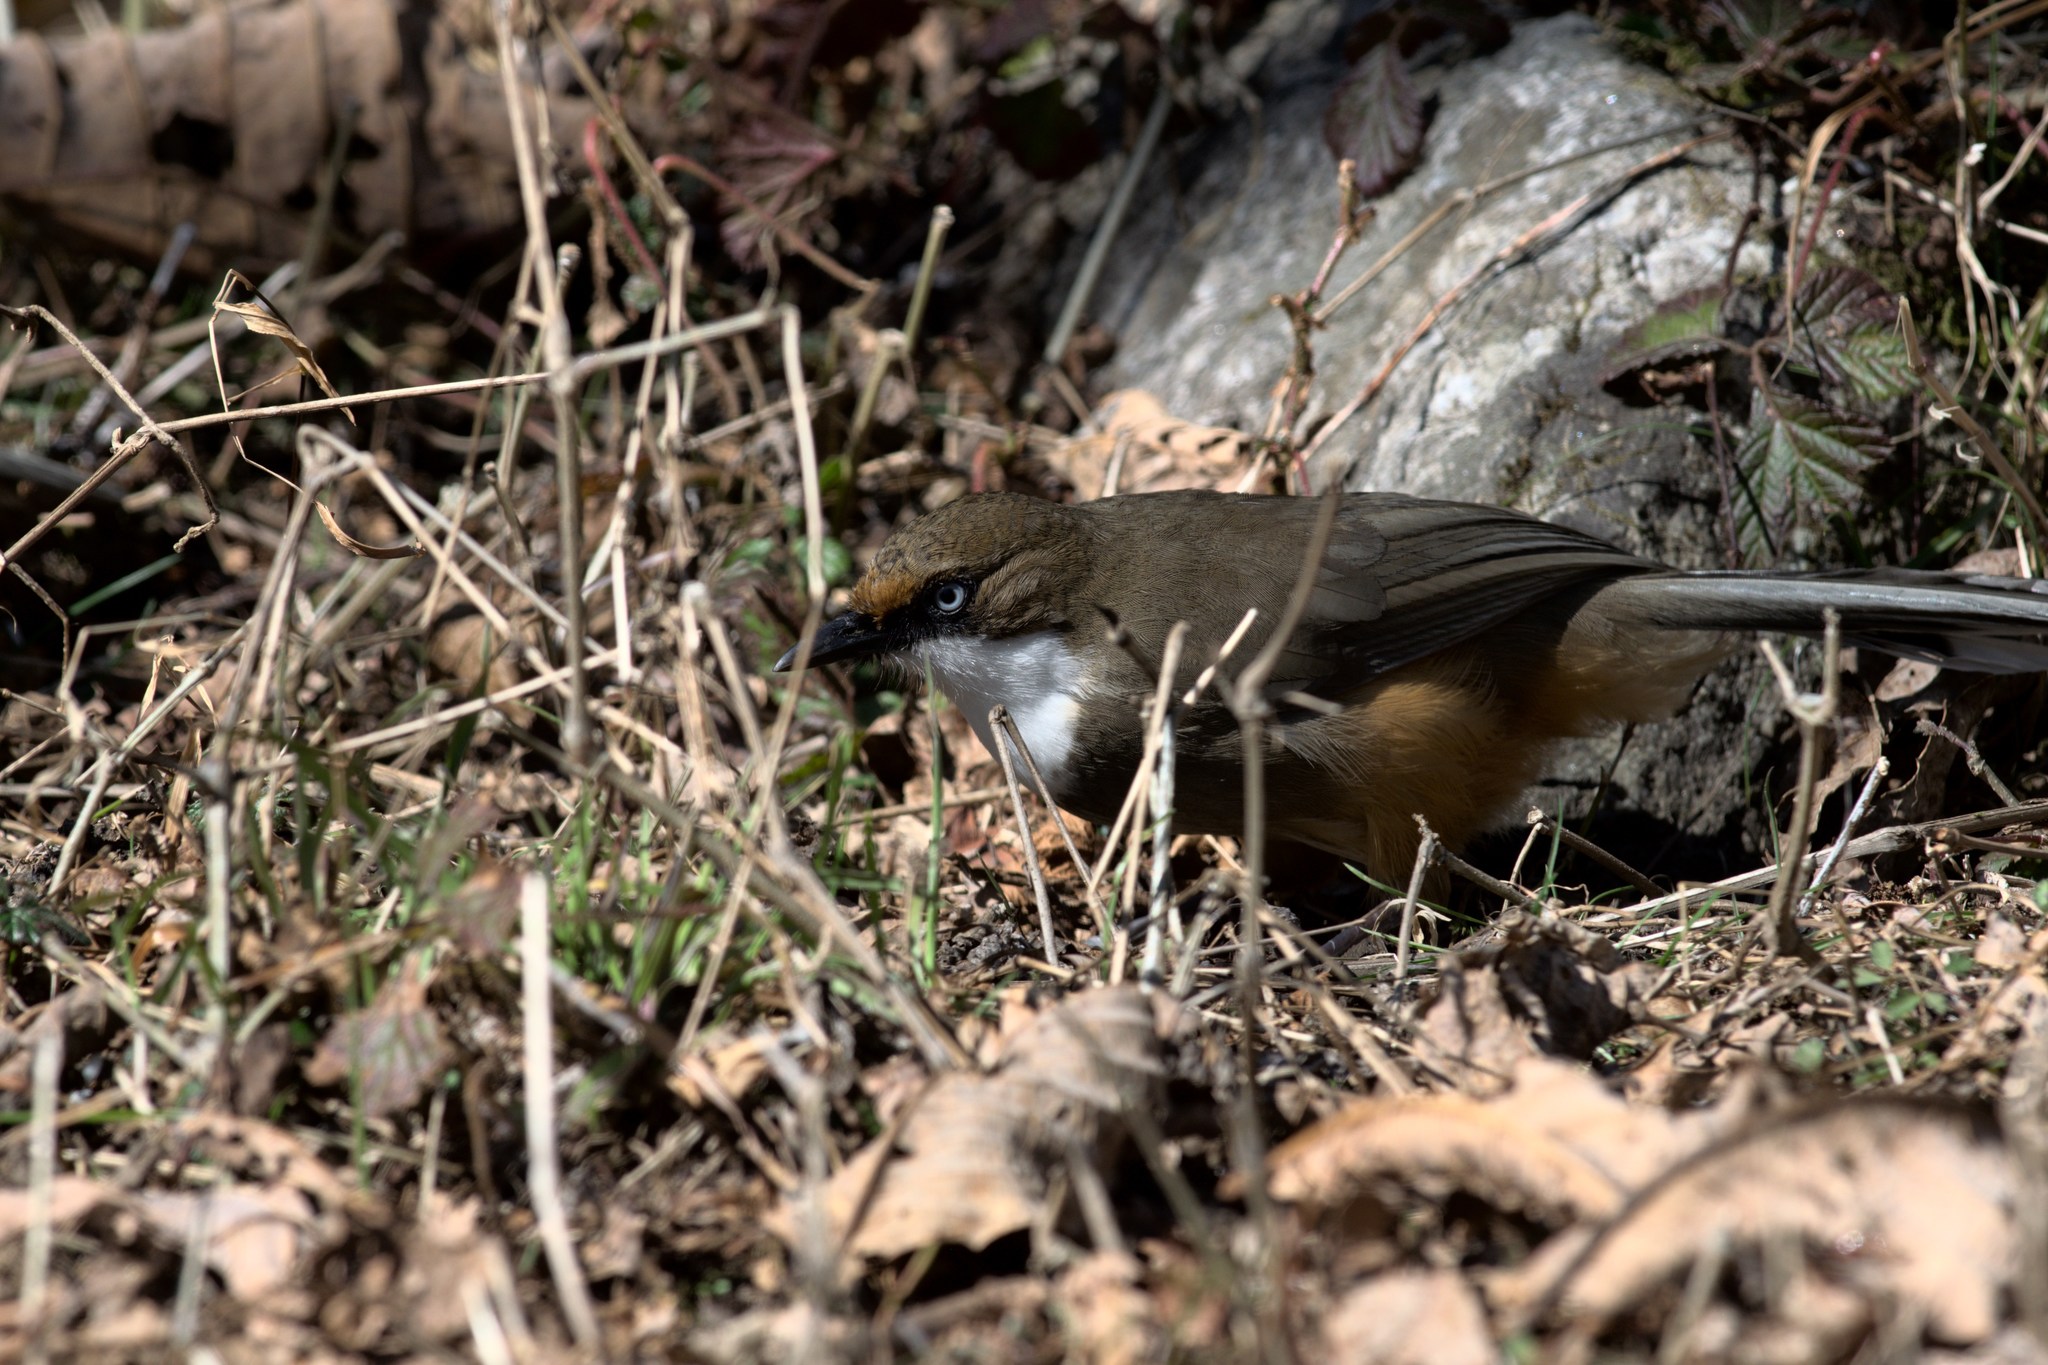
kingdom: Animalia
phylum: Chordata
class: Aves
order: Passeriformes
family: Leiothrichidae
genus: Garrulax
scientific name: Garrulax albogularis
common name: White-throated laughingthrush
